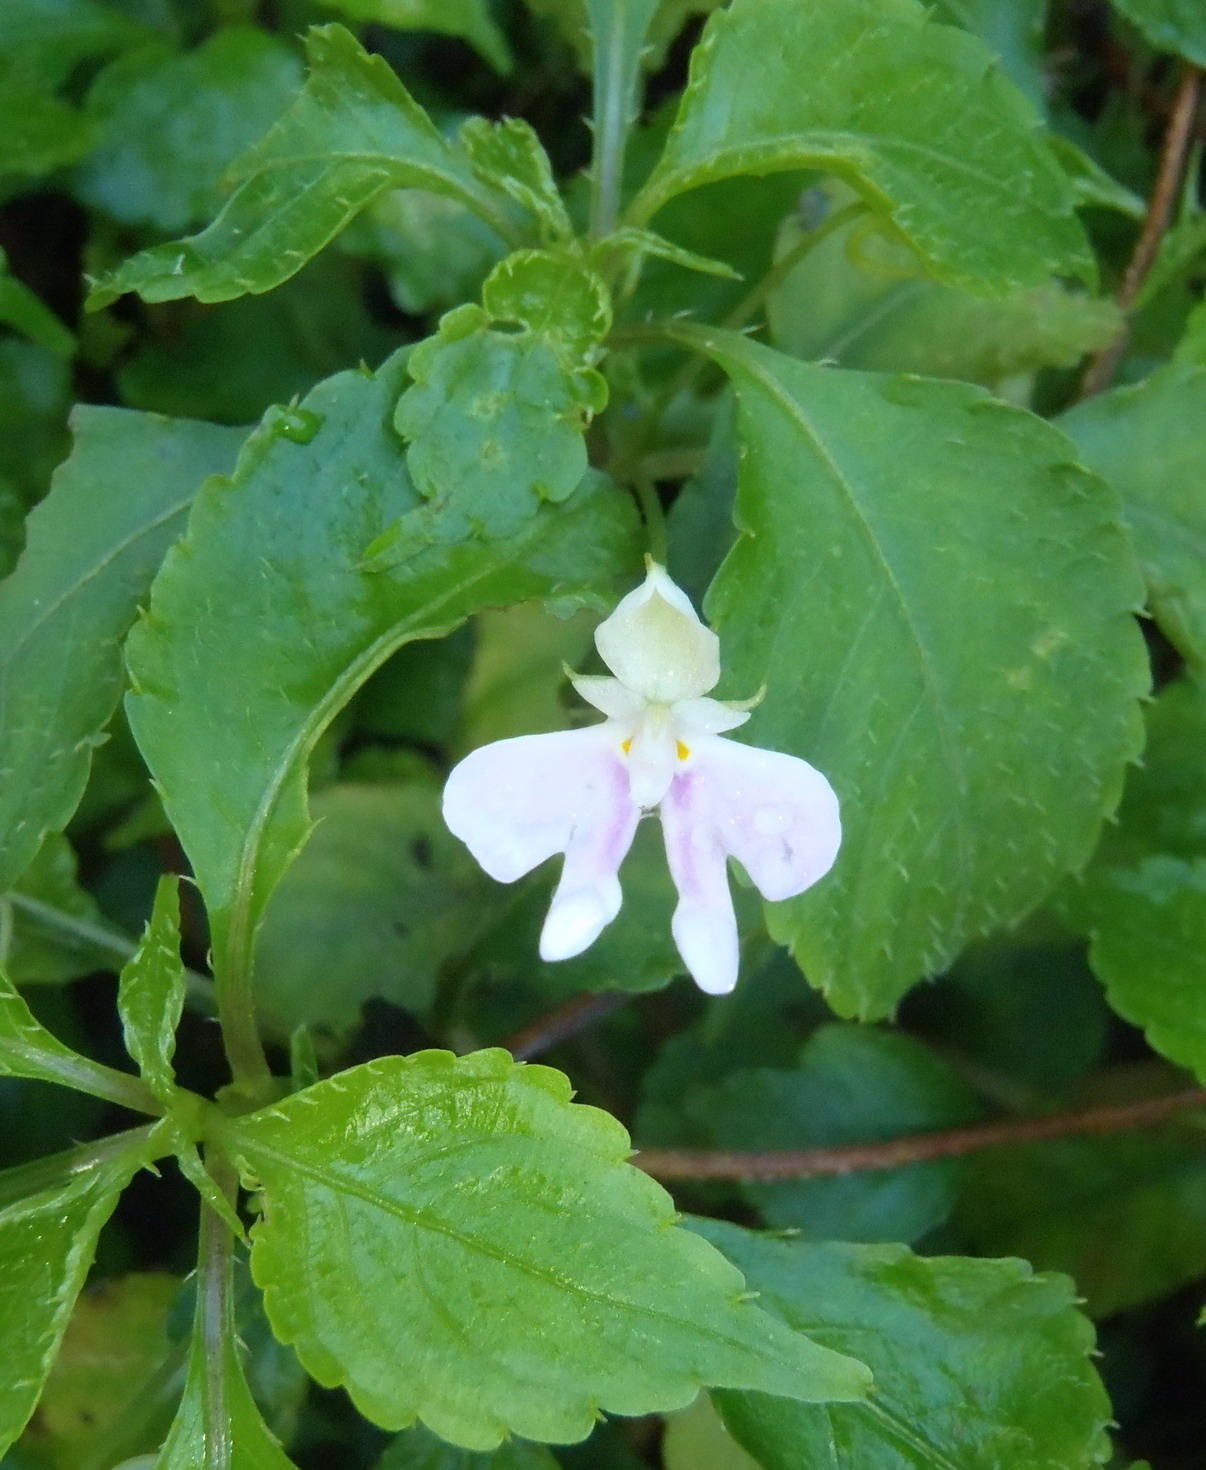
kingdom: Plantae
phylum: Tracheophyta
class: Magnoliopsida
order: Ericales
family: Balsaminaceae
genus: Impatiens
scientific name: Impatiens hochstetteri
